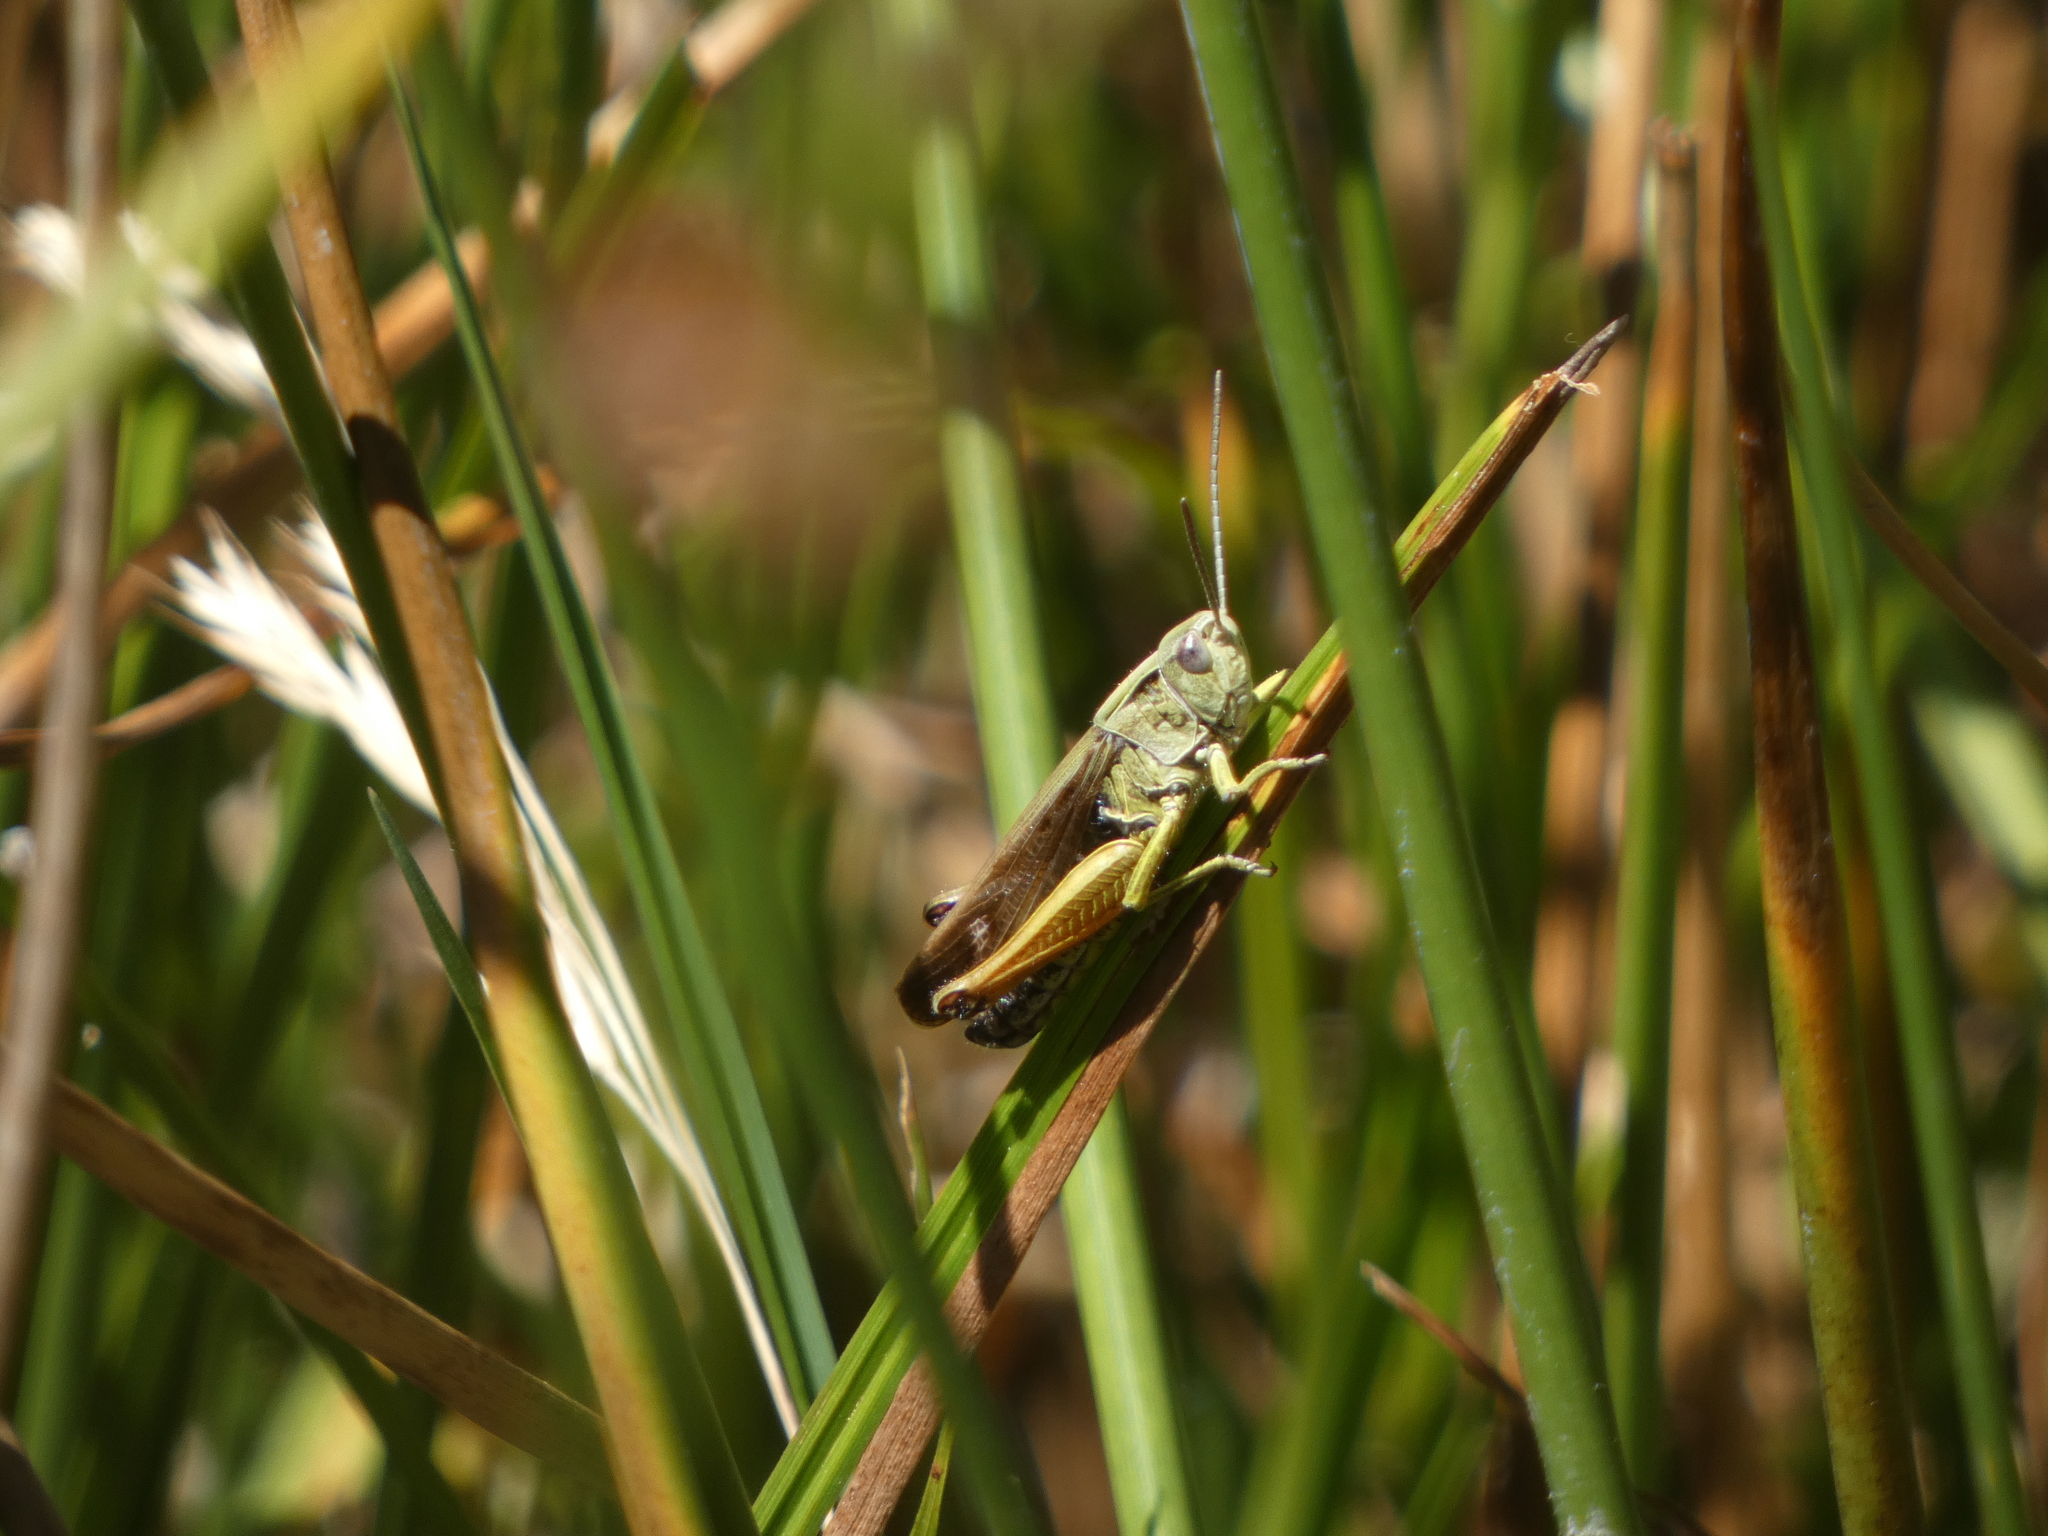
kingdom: Animalia
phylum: Arthropoda
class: Insecta
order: Orthoptera
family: Acrididae
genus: Omocestus
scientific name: Omocestus viridulus
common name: Common green grasshopper
